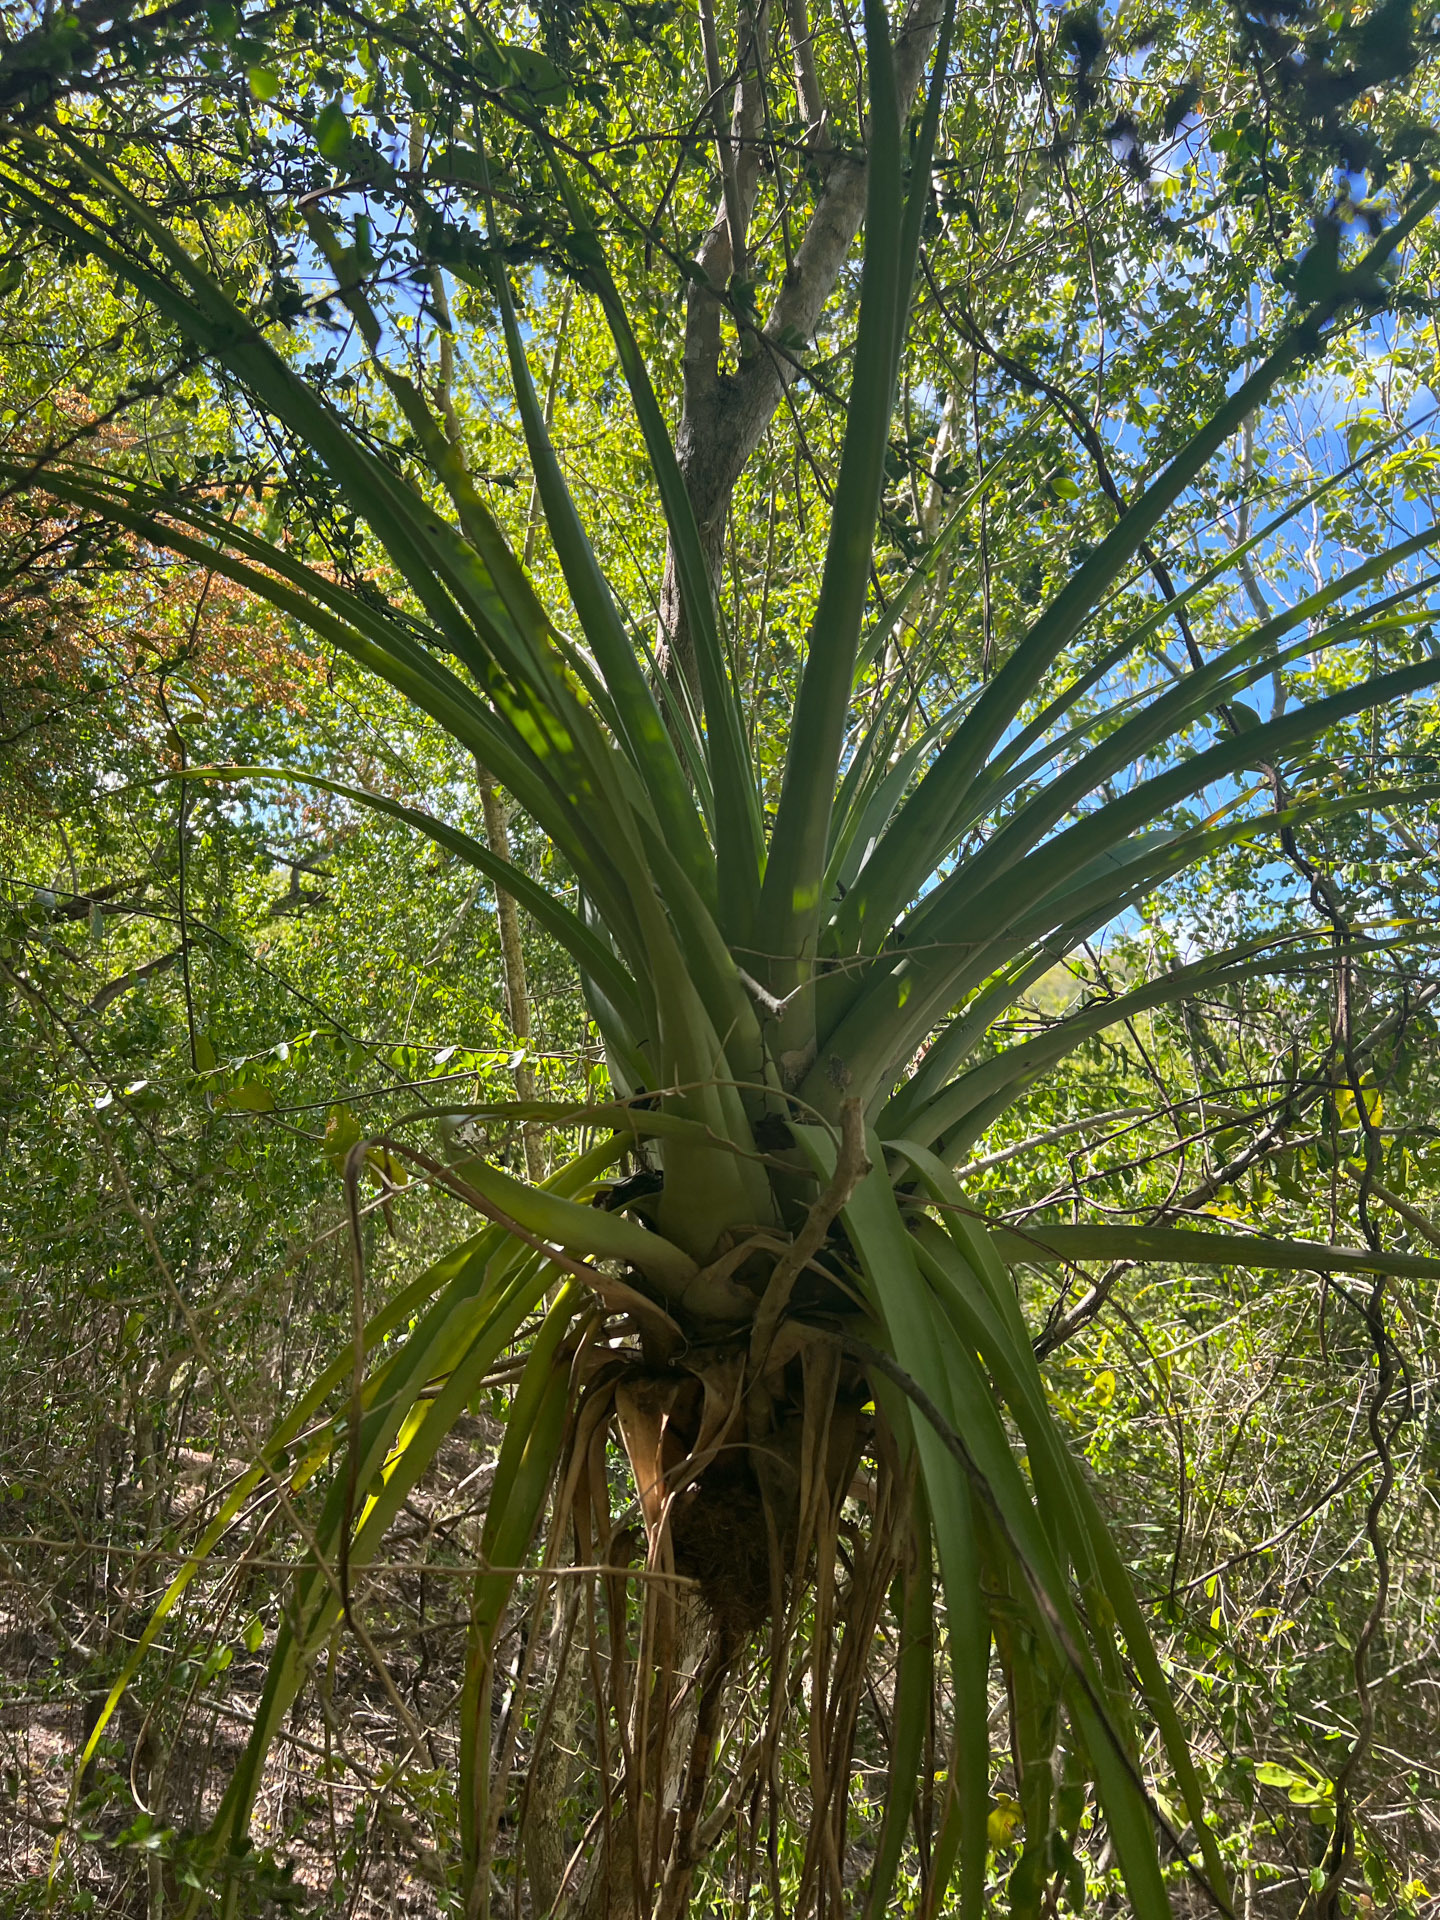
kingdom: Plantae
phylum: Tracheophyta
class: Liliopsida
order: Poales
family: Bromeliaceae
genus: Tillandsia
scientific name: Tillandsia utriculata
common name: Wild pine
